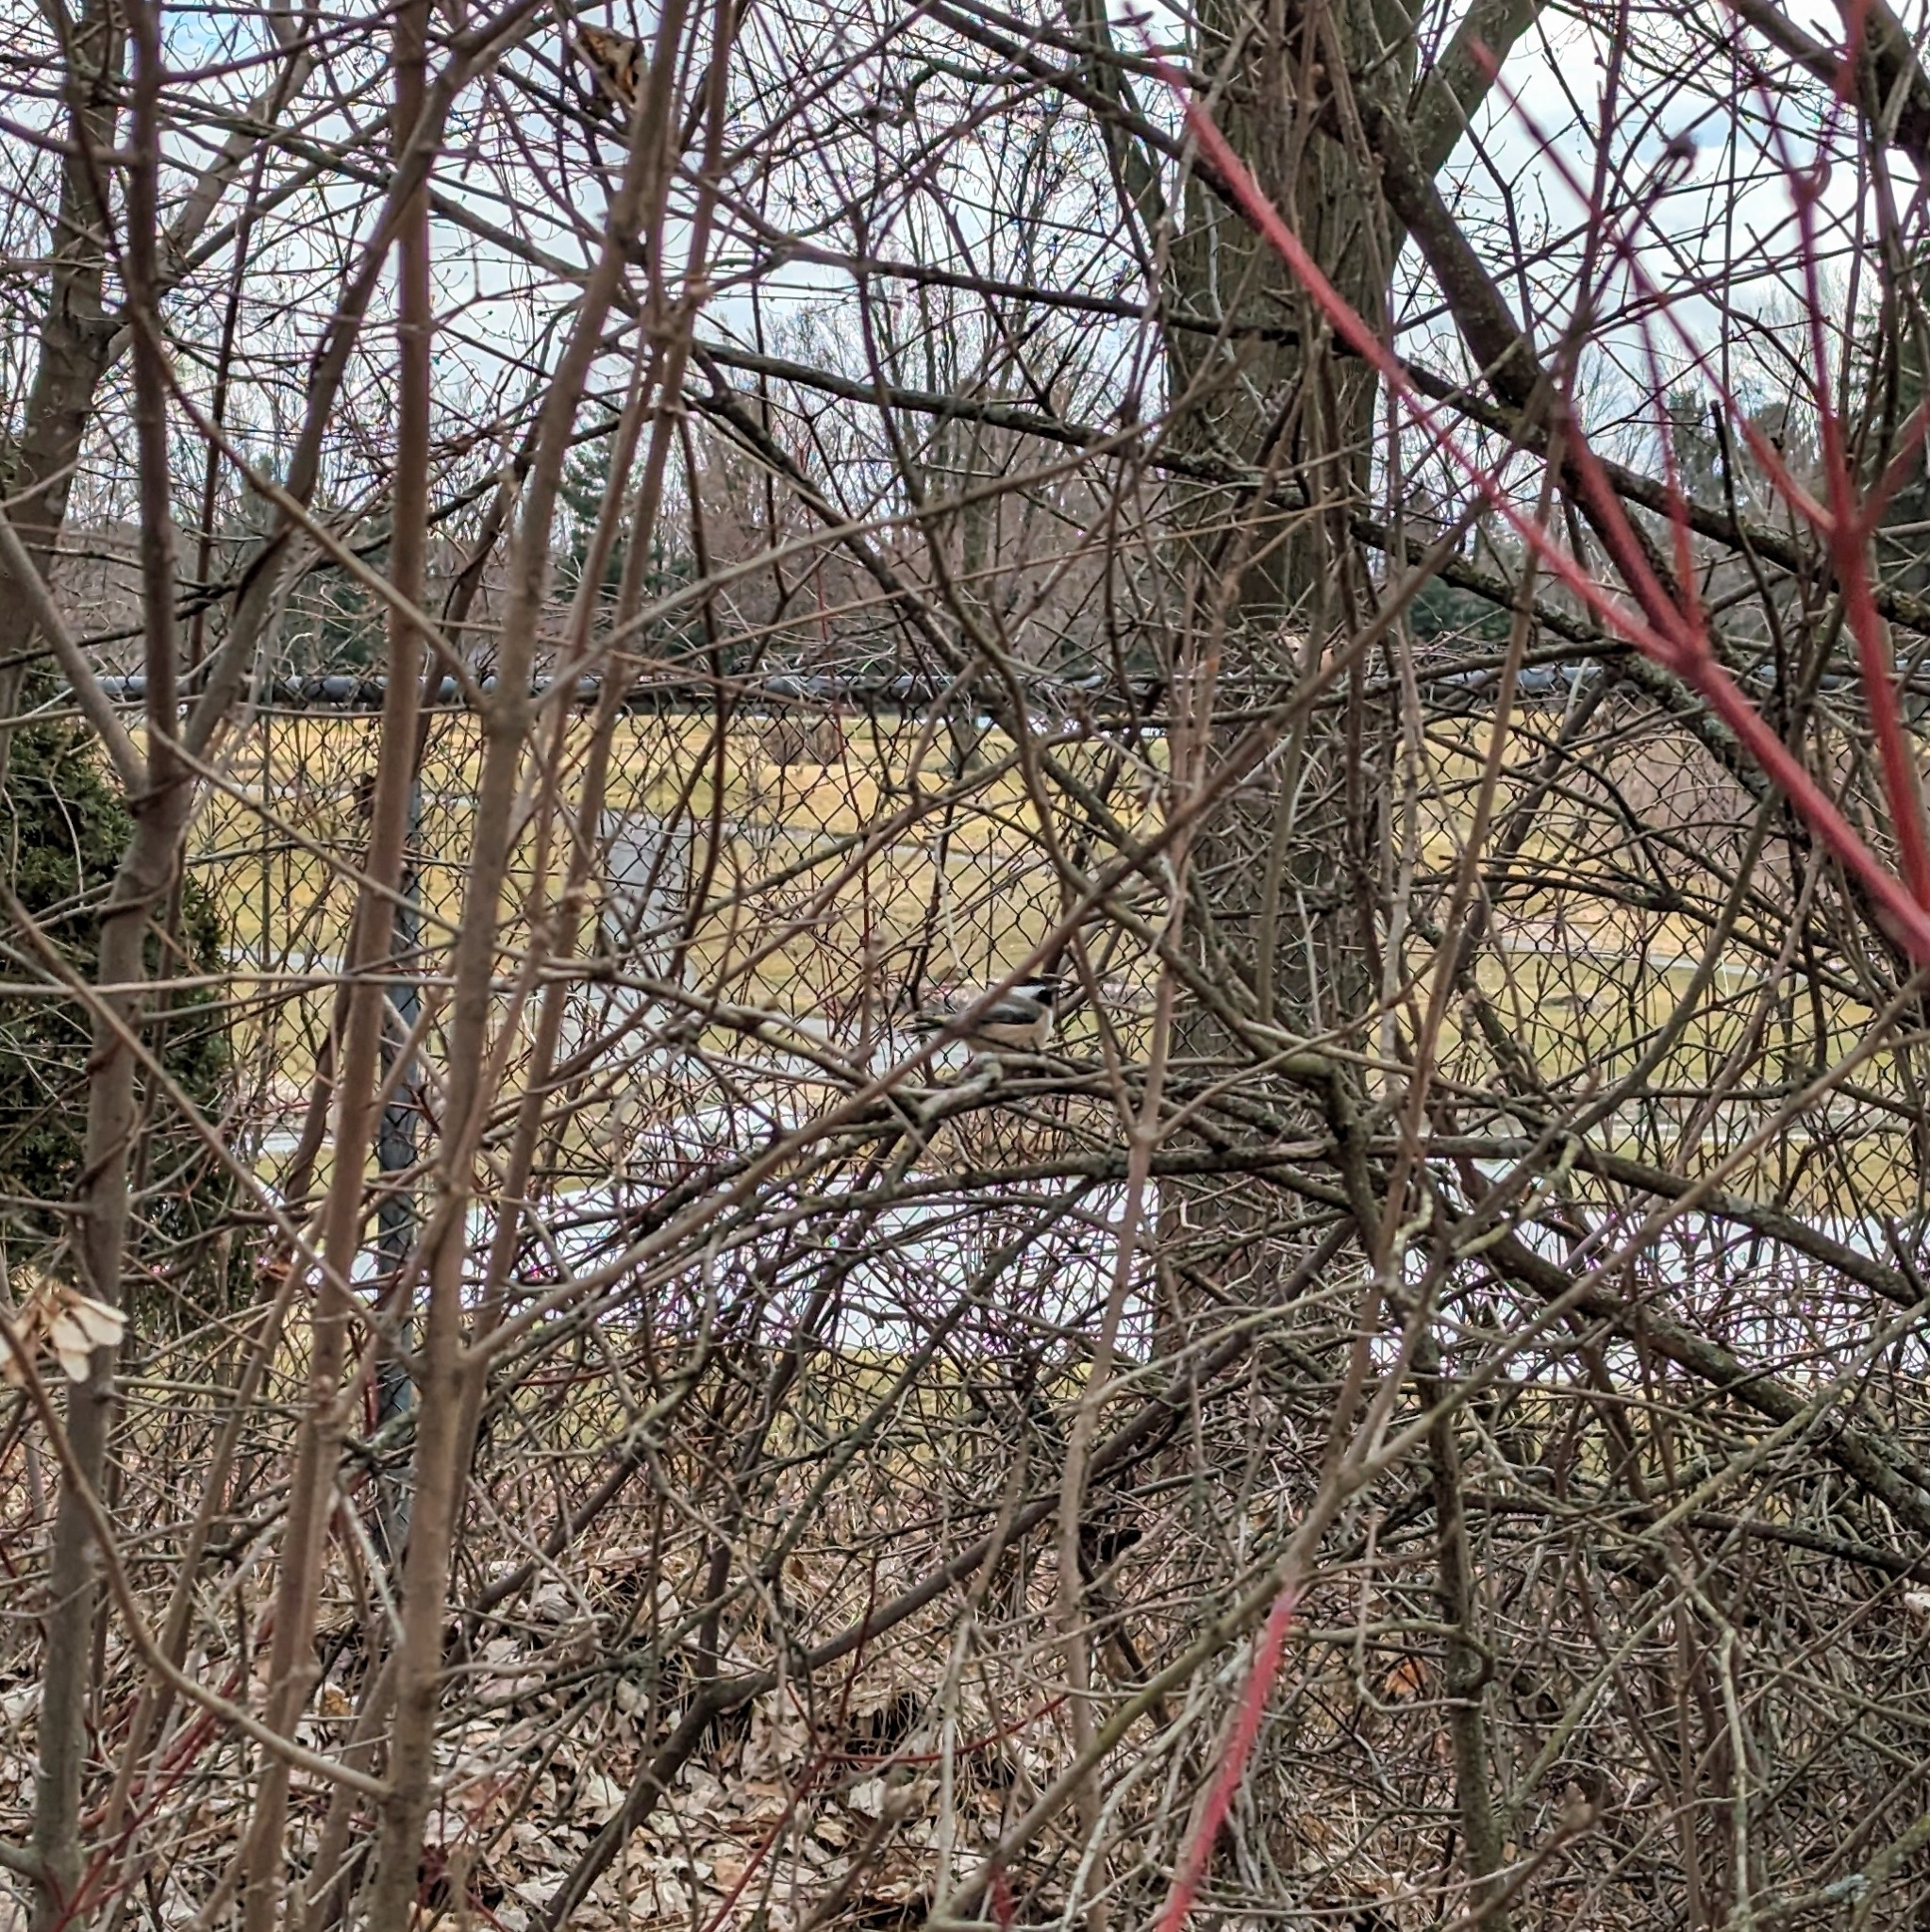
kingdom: Animalia
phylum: Chordata
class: Aves
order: Passeriformes
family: Paridae
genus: Poecile
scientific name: Poecile atricapillus
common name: Black-capped chickadee
